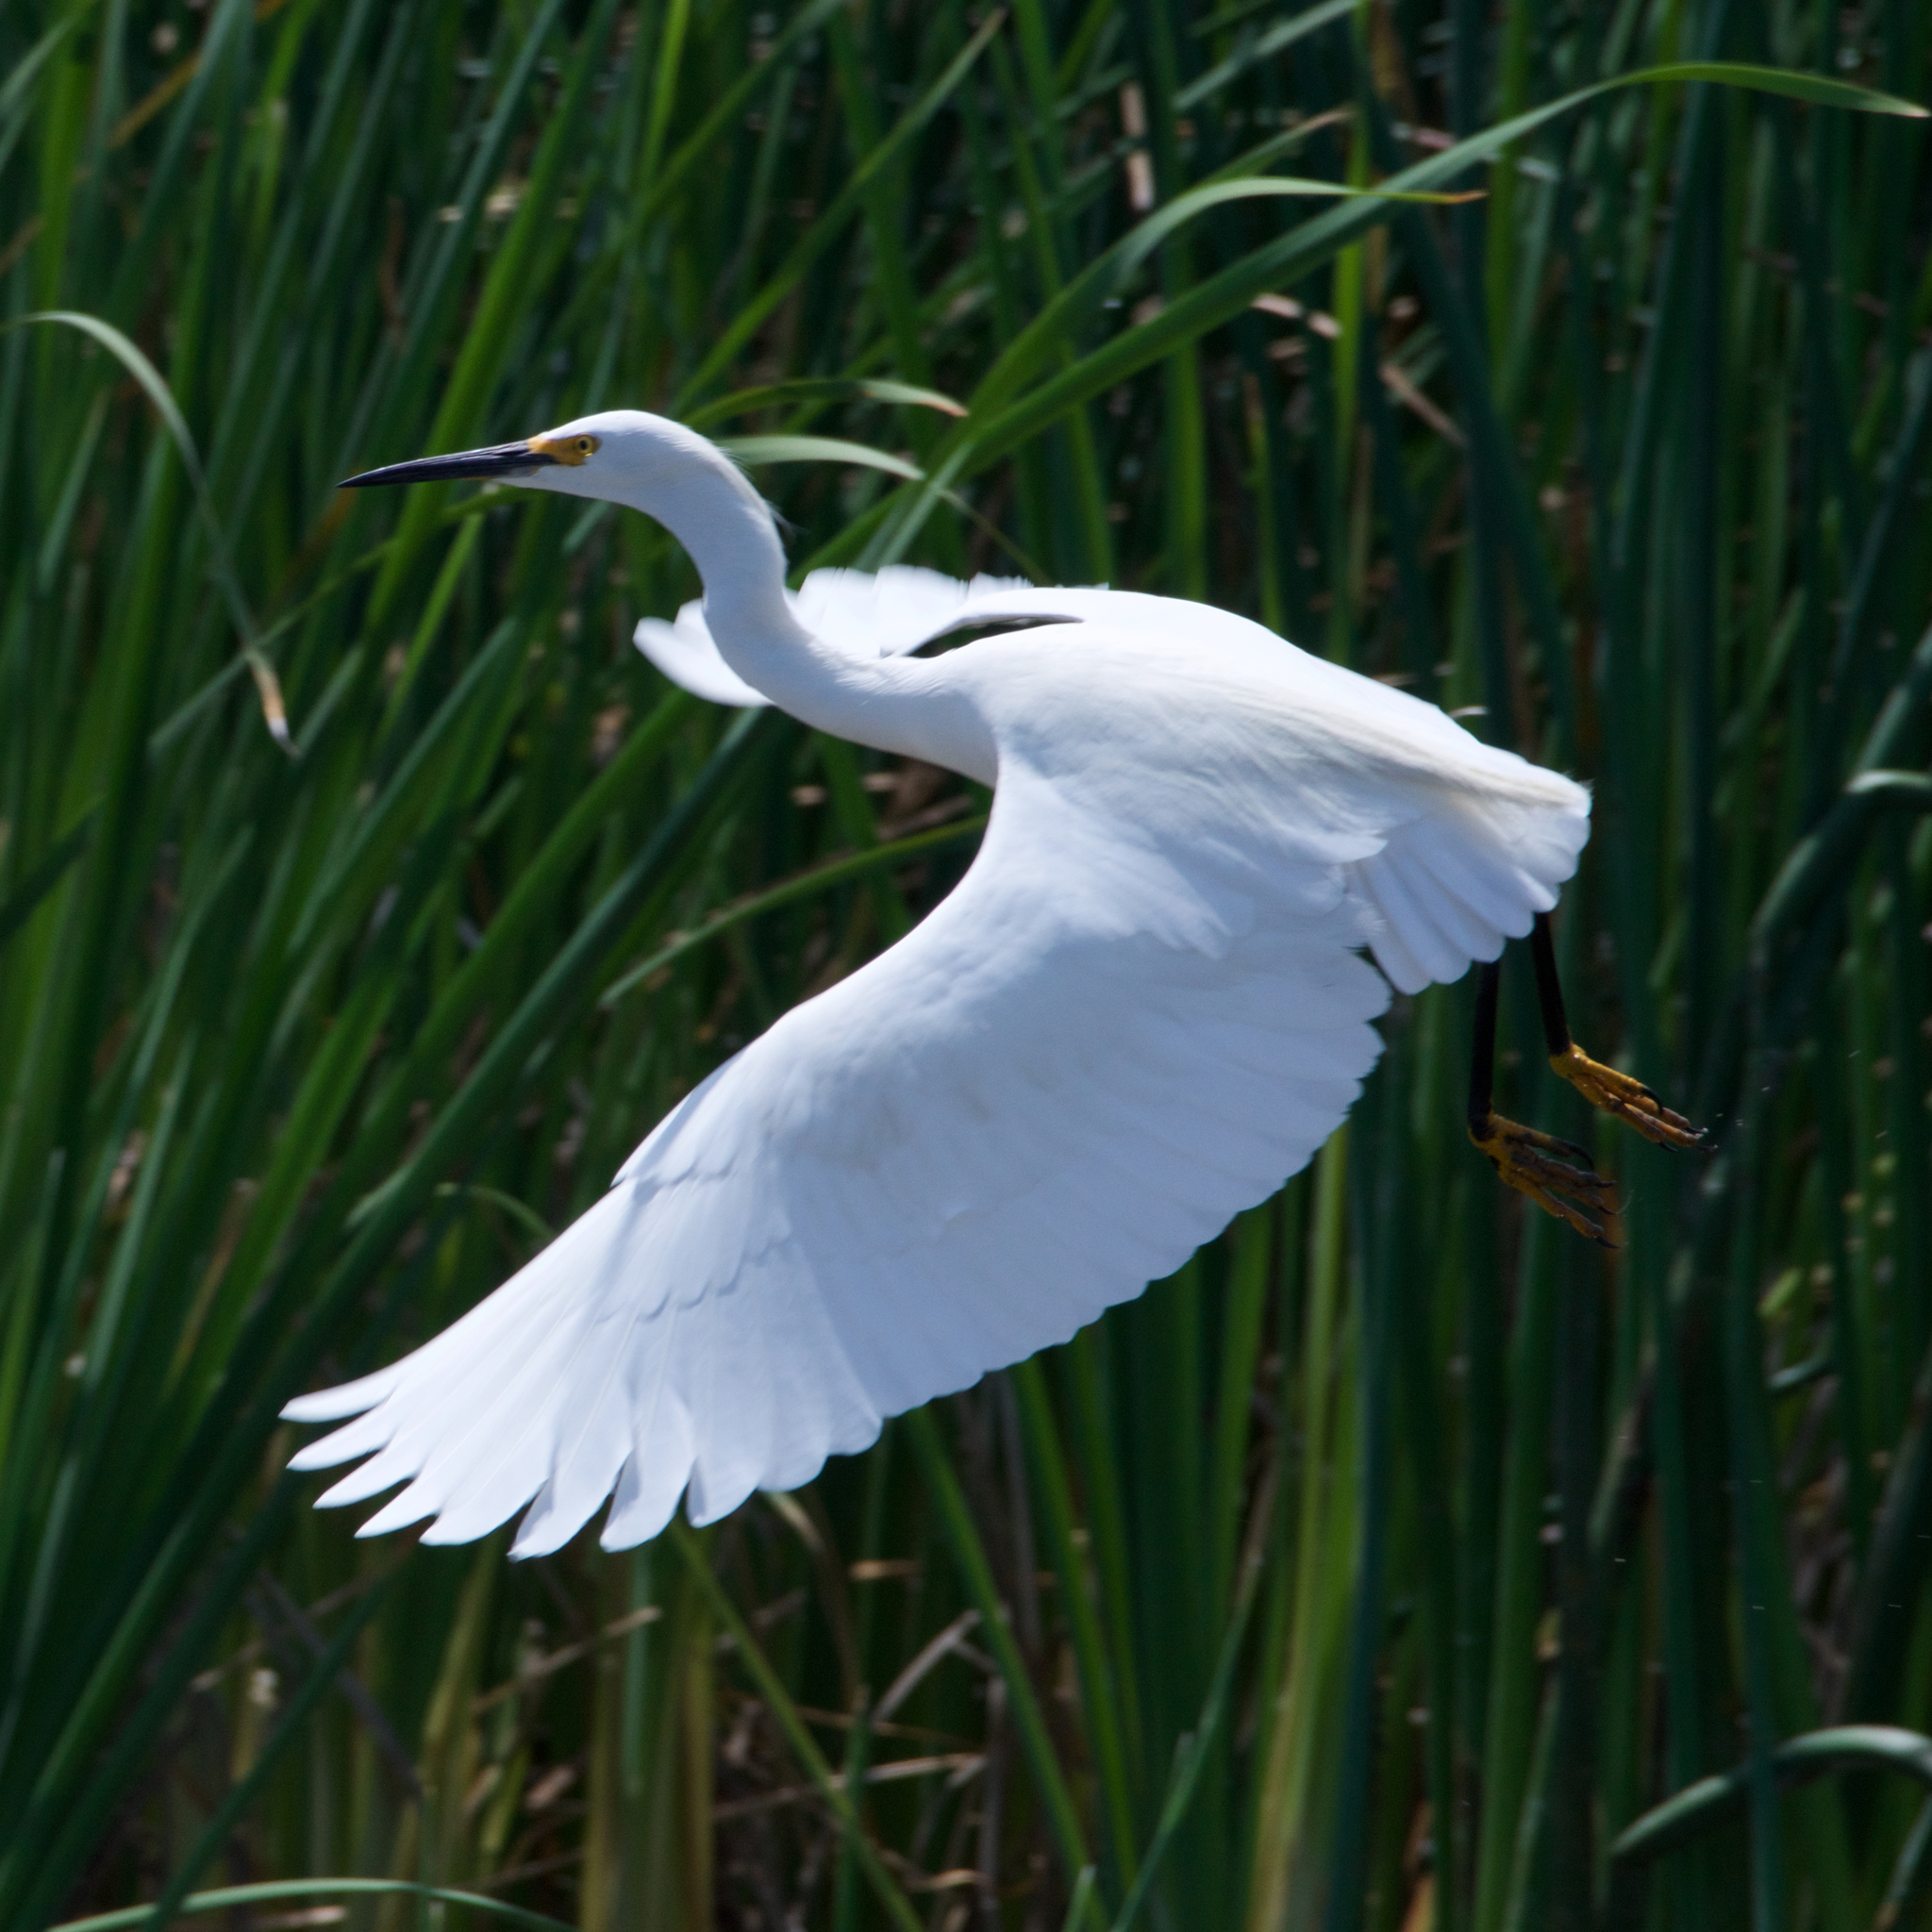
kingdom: Animalia
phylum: Chordata
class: Aves
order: Pelecaniformes
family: Ardeidae
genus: Egretta
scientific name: Egretta thula
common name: Snowy egret
